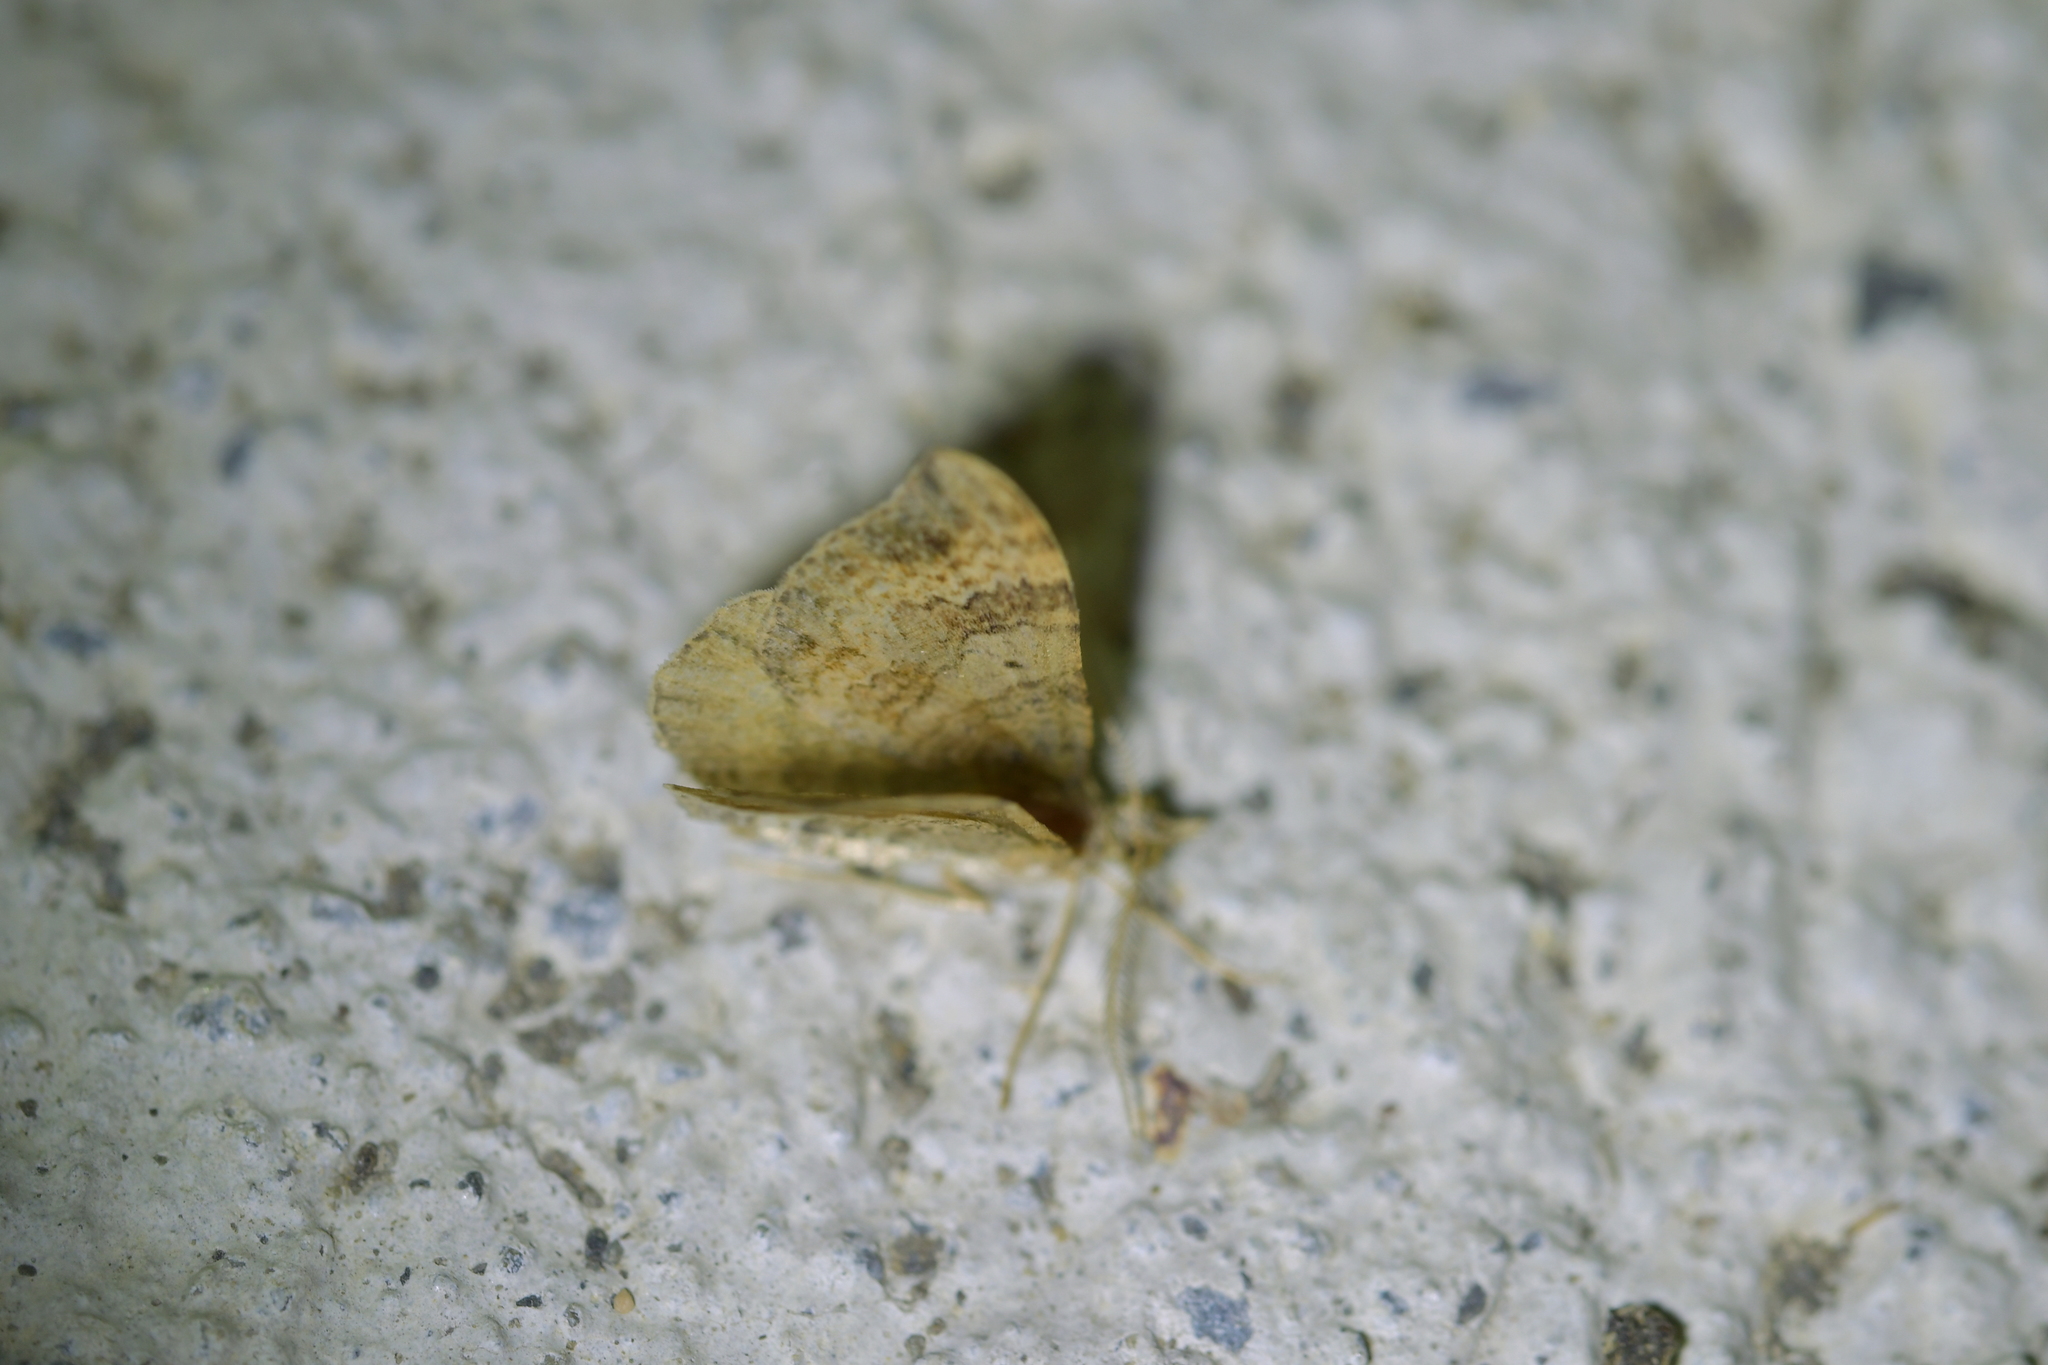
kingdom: Animalia
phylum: Arthropoda
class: Insecta
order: Lepidoptera
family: Geometridae
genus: Homodotis
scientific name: Homodotis megaspilata
